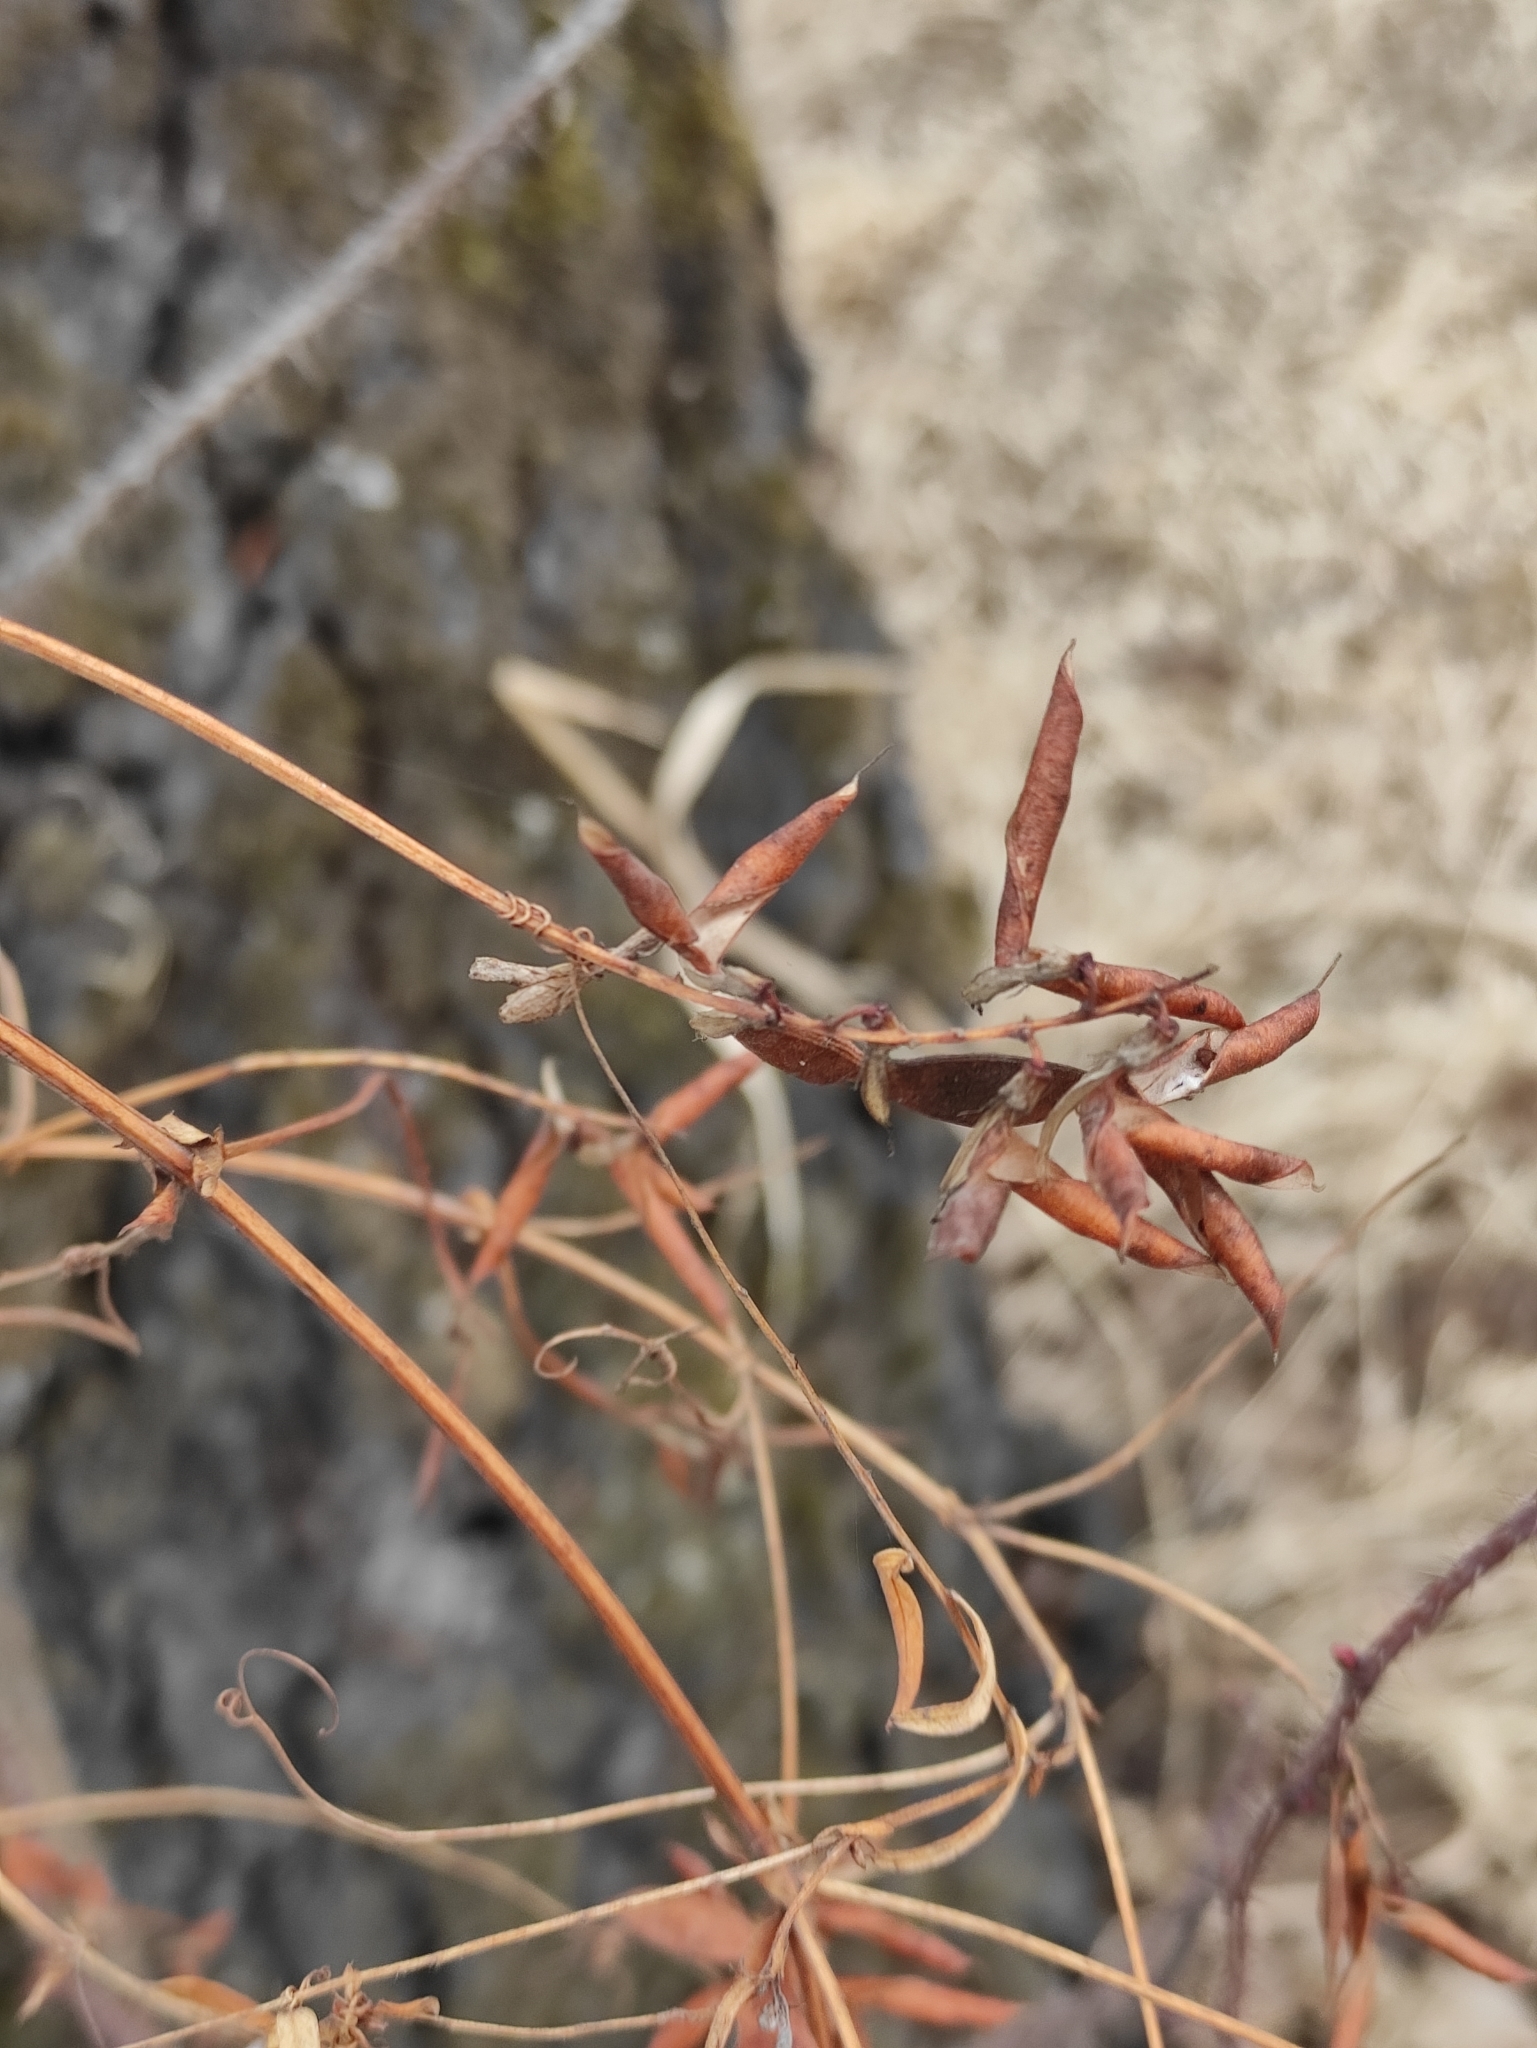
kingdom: Plantae
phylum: Tracheophyta
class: Magnoliopsida
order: Fabales
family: Fabaceae
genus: Vicia
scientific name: Vicia amoena
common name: Cheder ebs
